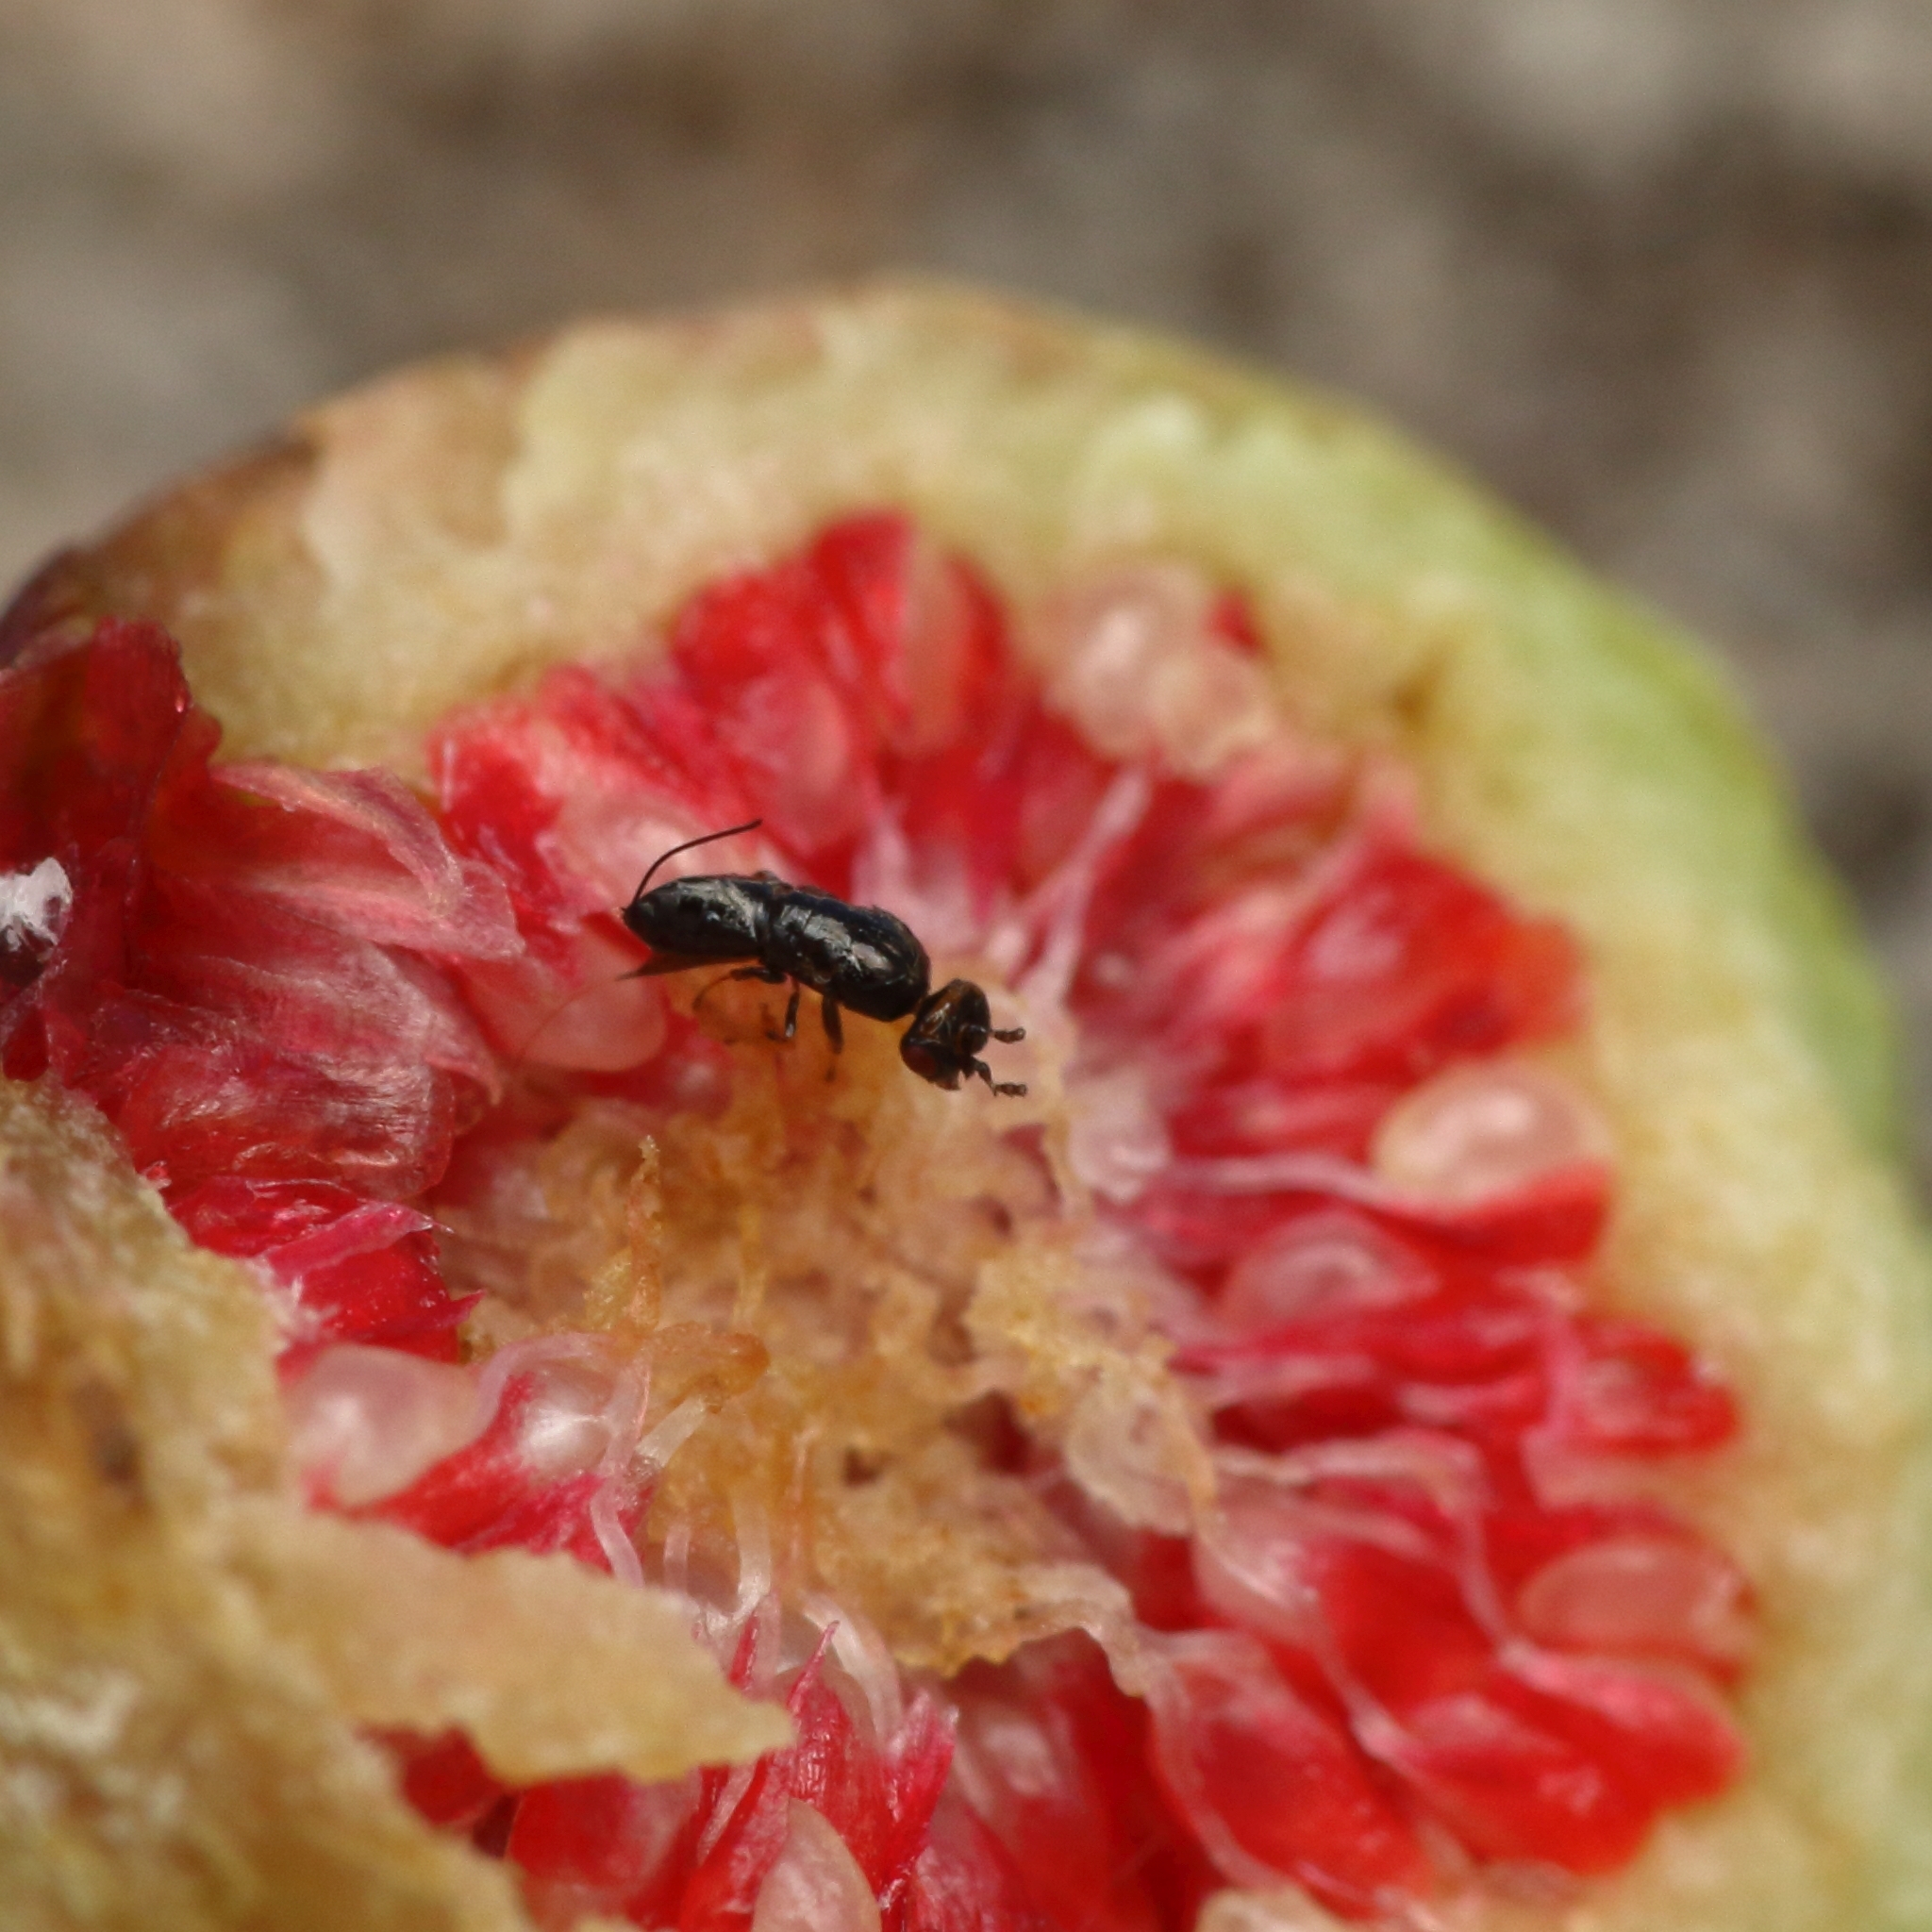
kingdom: Animalia
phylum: Arthropoda
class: Insecta
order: Hymenoptera
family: Agaonidae
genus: Platyscapa
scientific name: Platyscapa soraria
